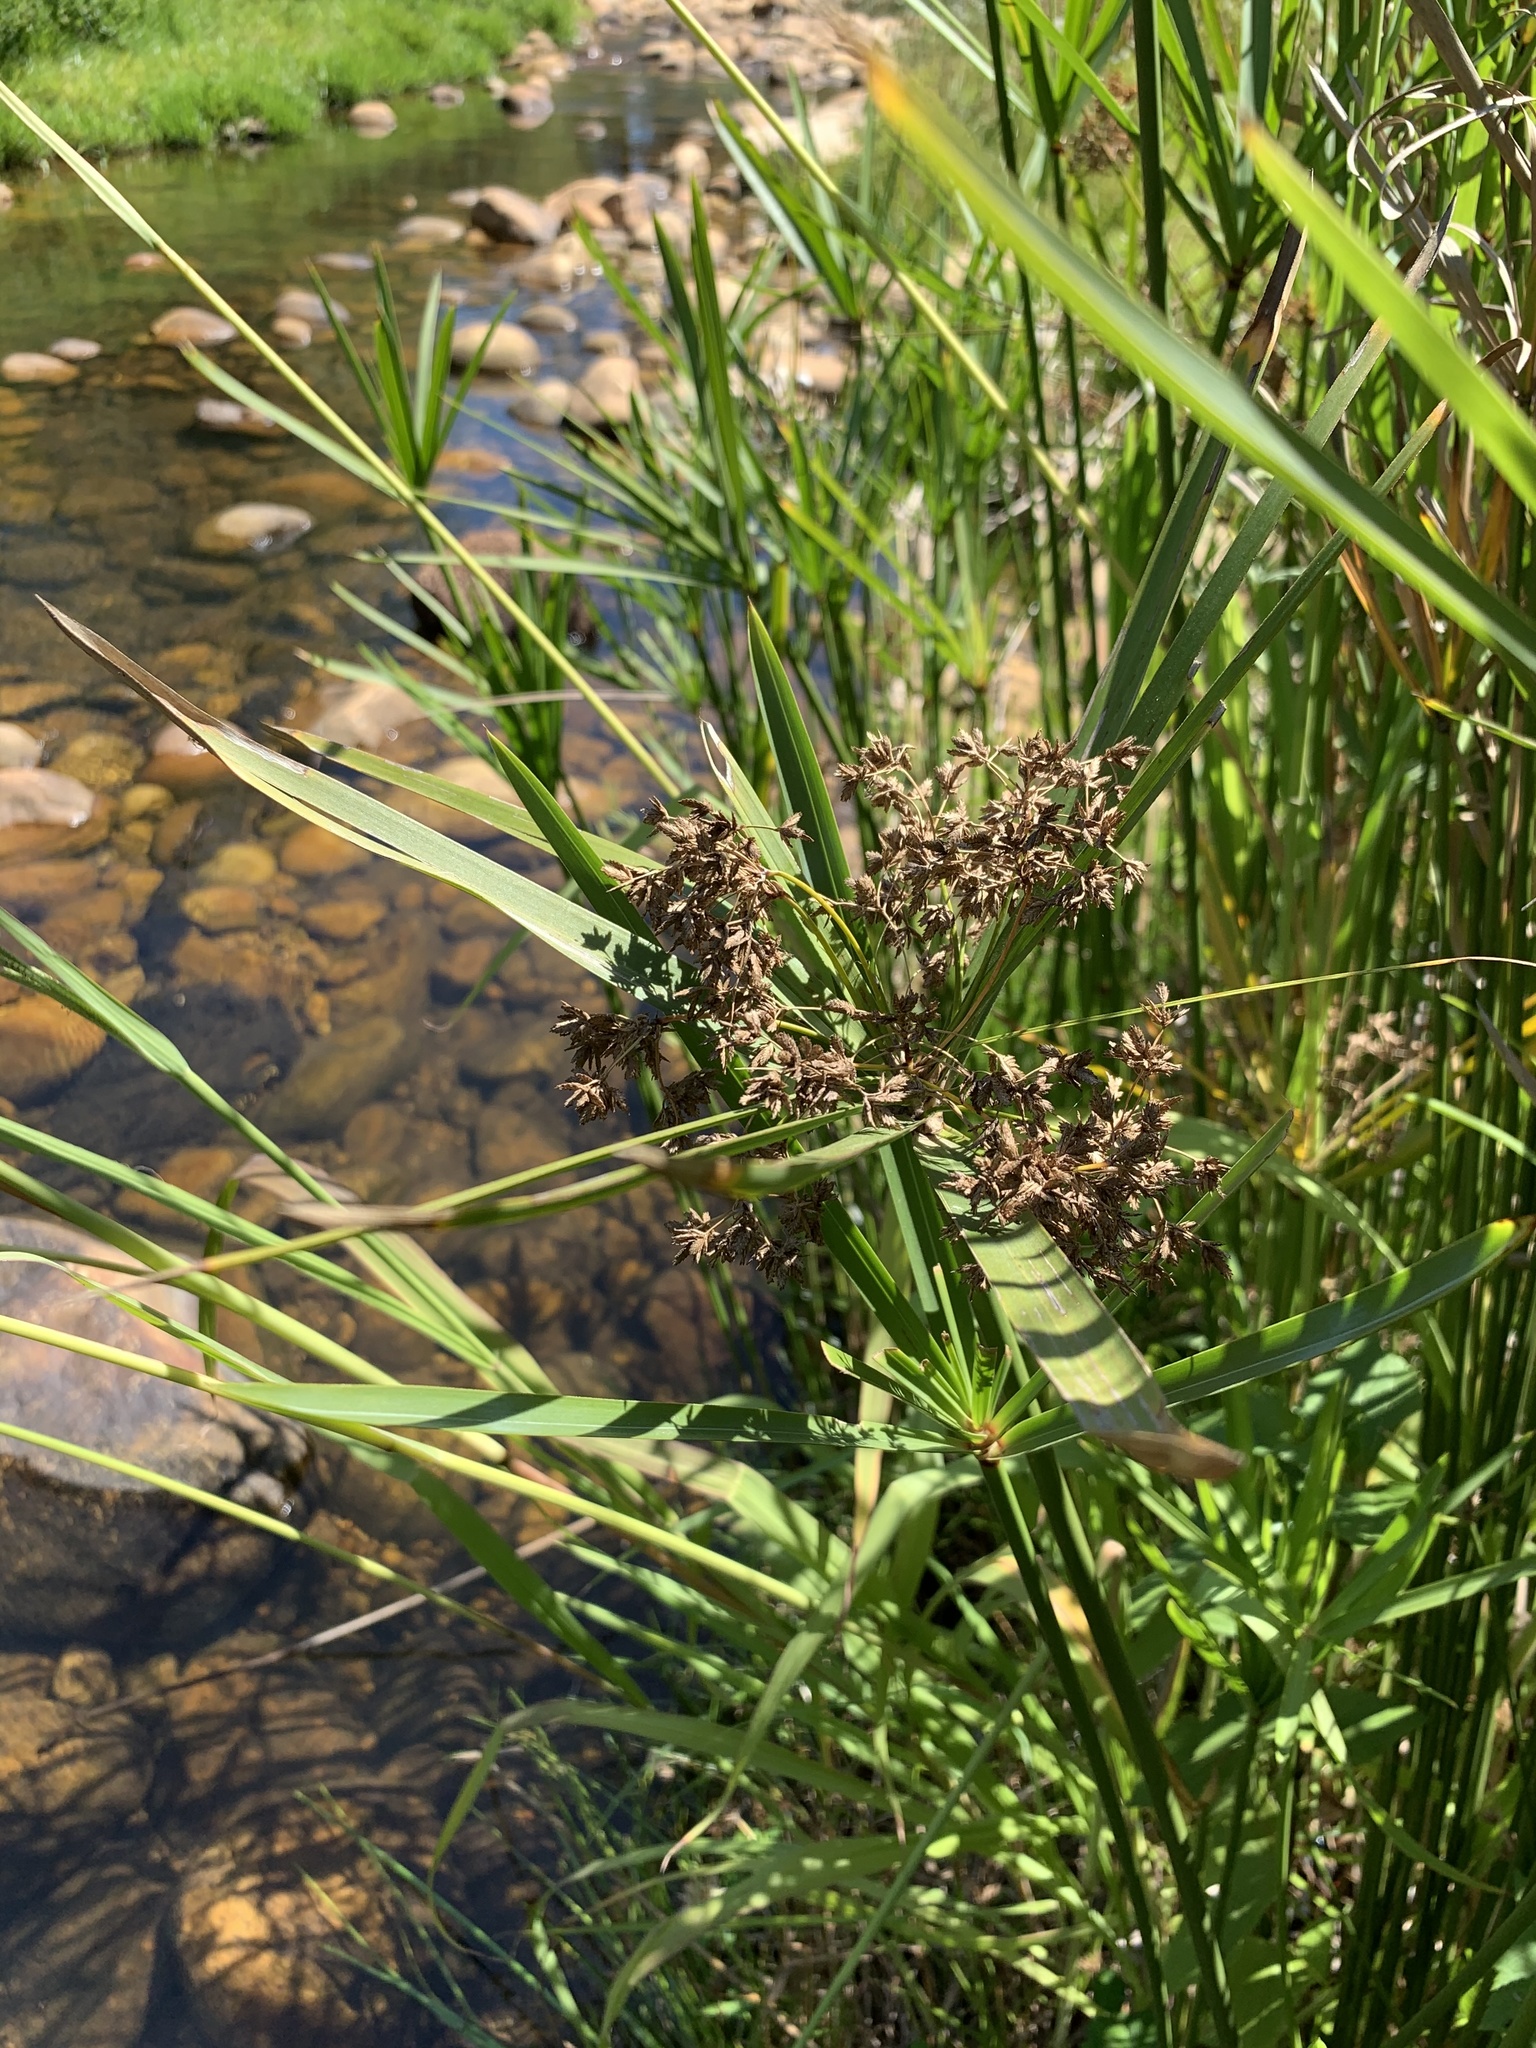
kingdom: Plantae
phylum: Tracheophyta
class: Liliopsida
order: Poales
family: Cyperaceae
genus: Cyperus
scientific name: Cyperus textilis
